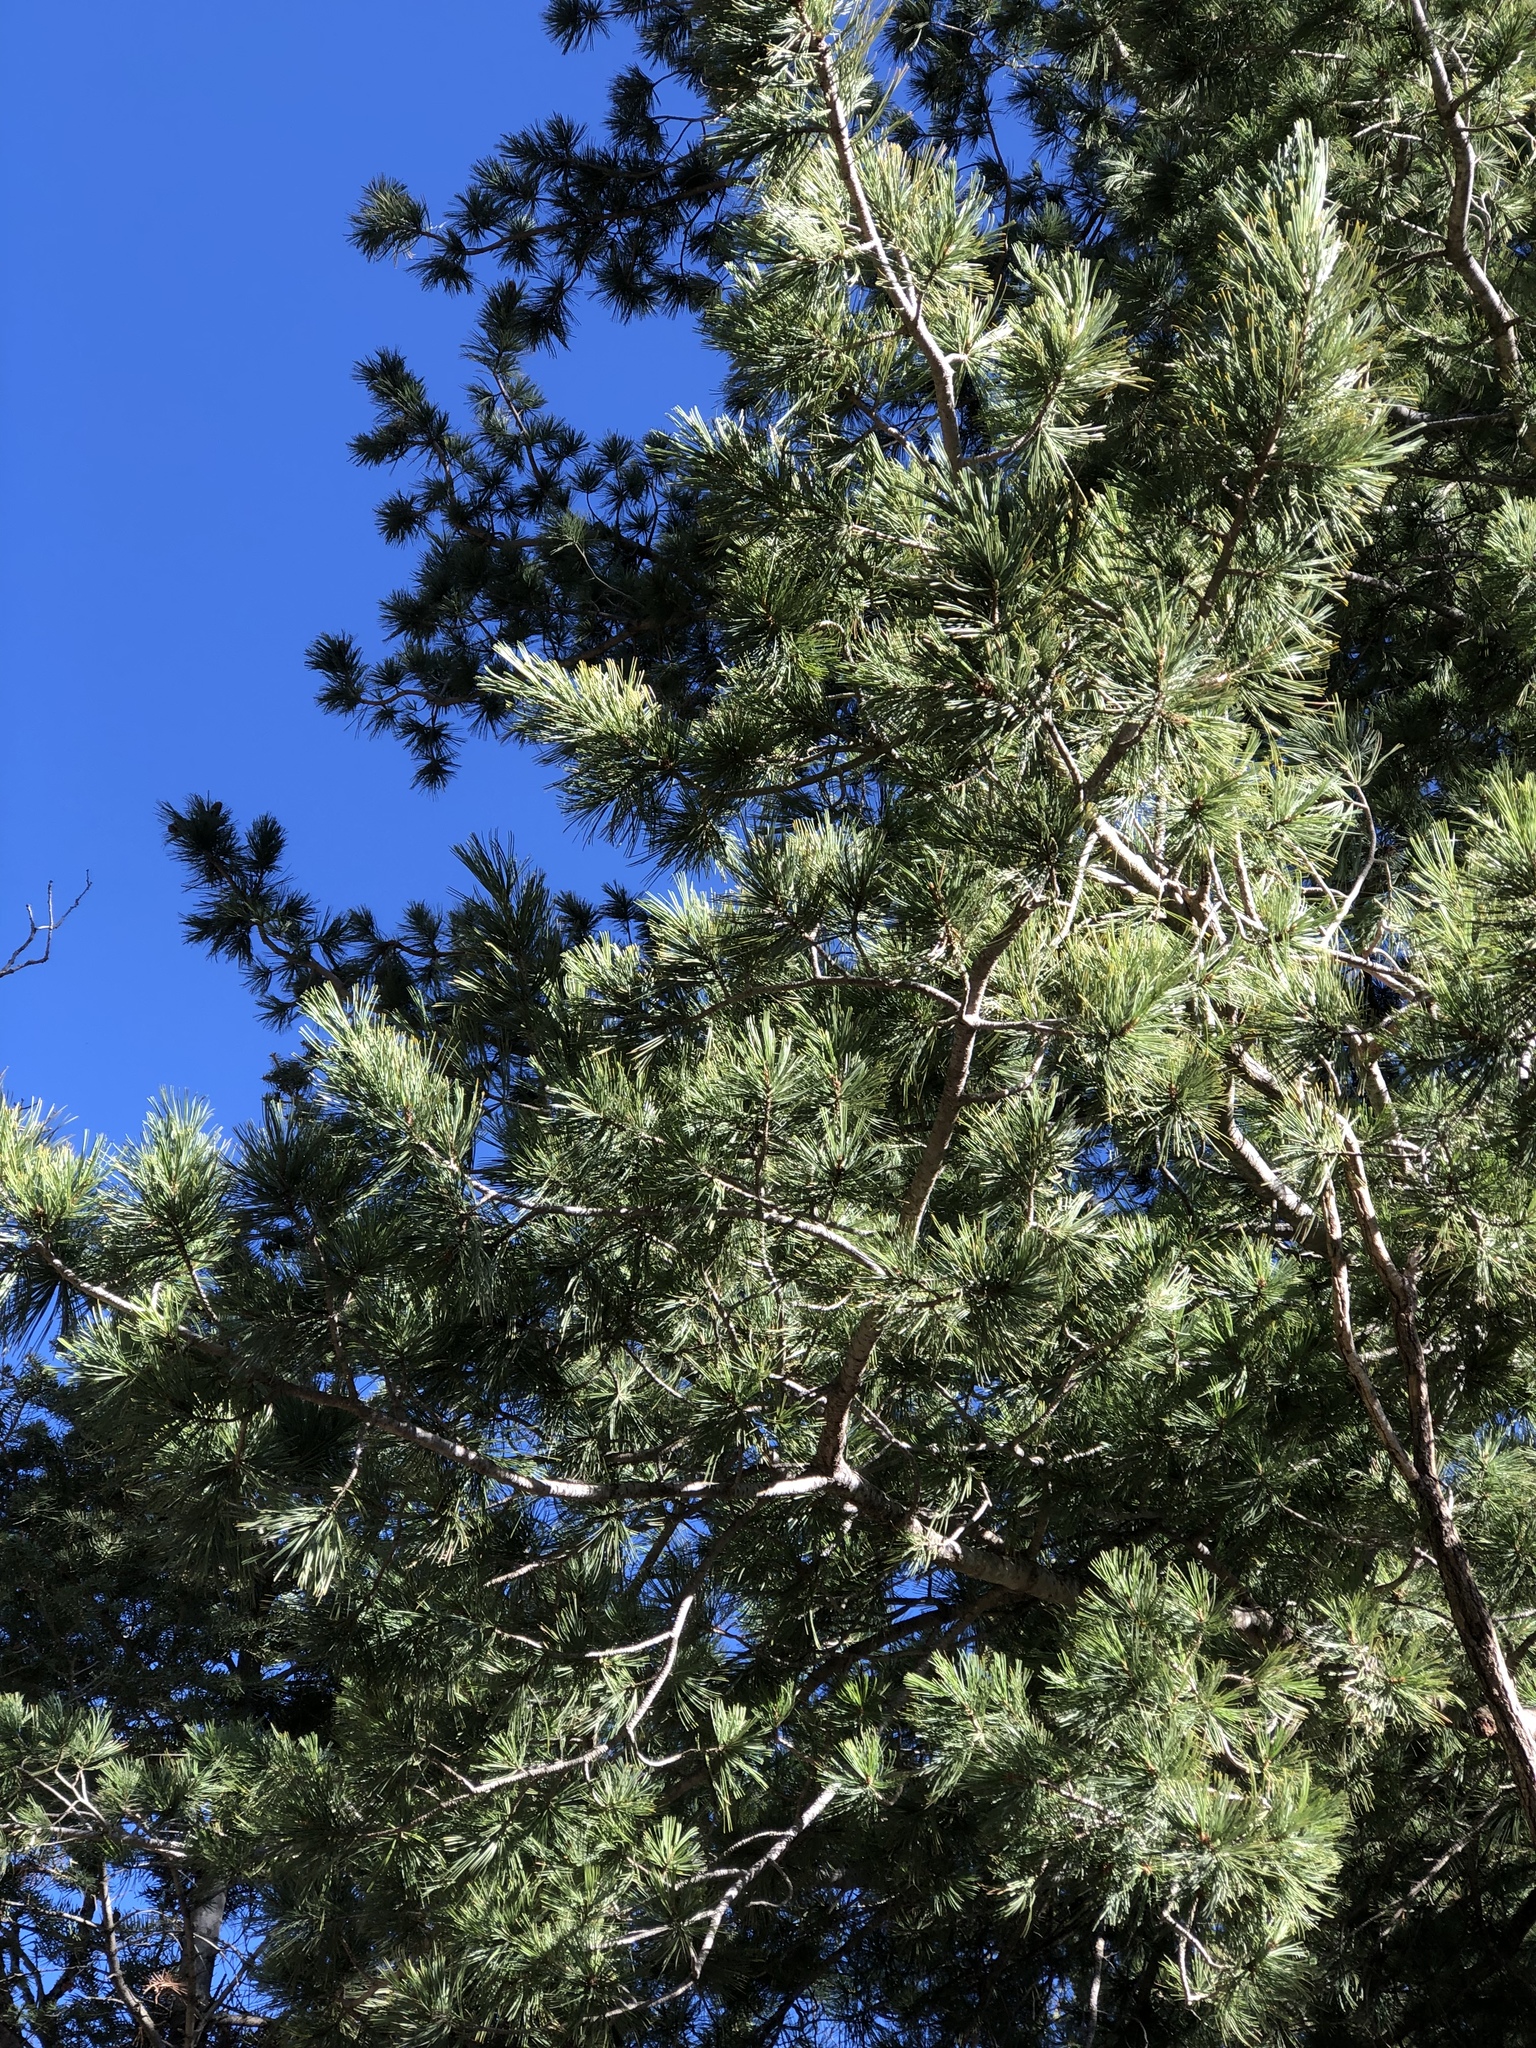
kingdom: Plantae
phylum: Tracheophyta
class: Pinopsida
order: Pinales
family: Pinaceae
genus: Pinus
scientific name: Pinus strobiformis
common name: Southwestern white pine
